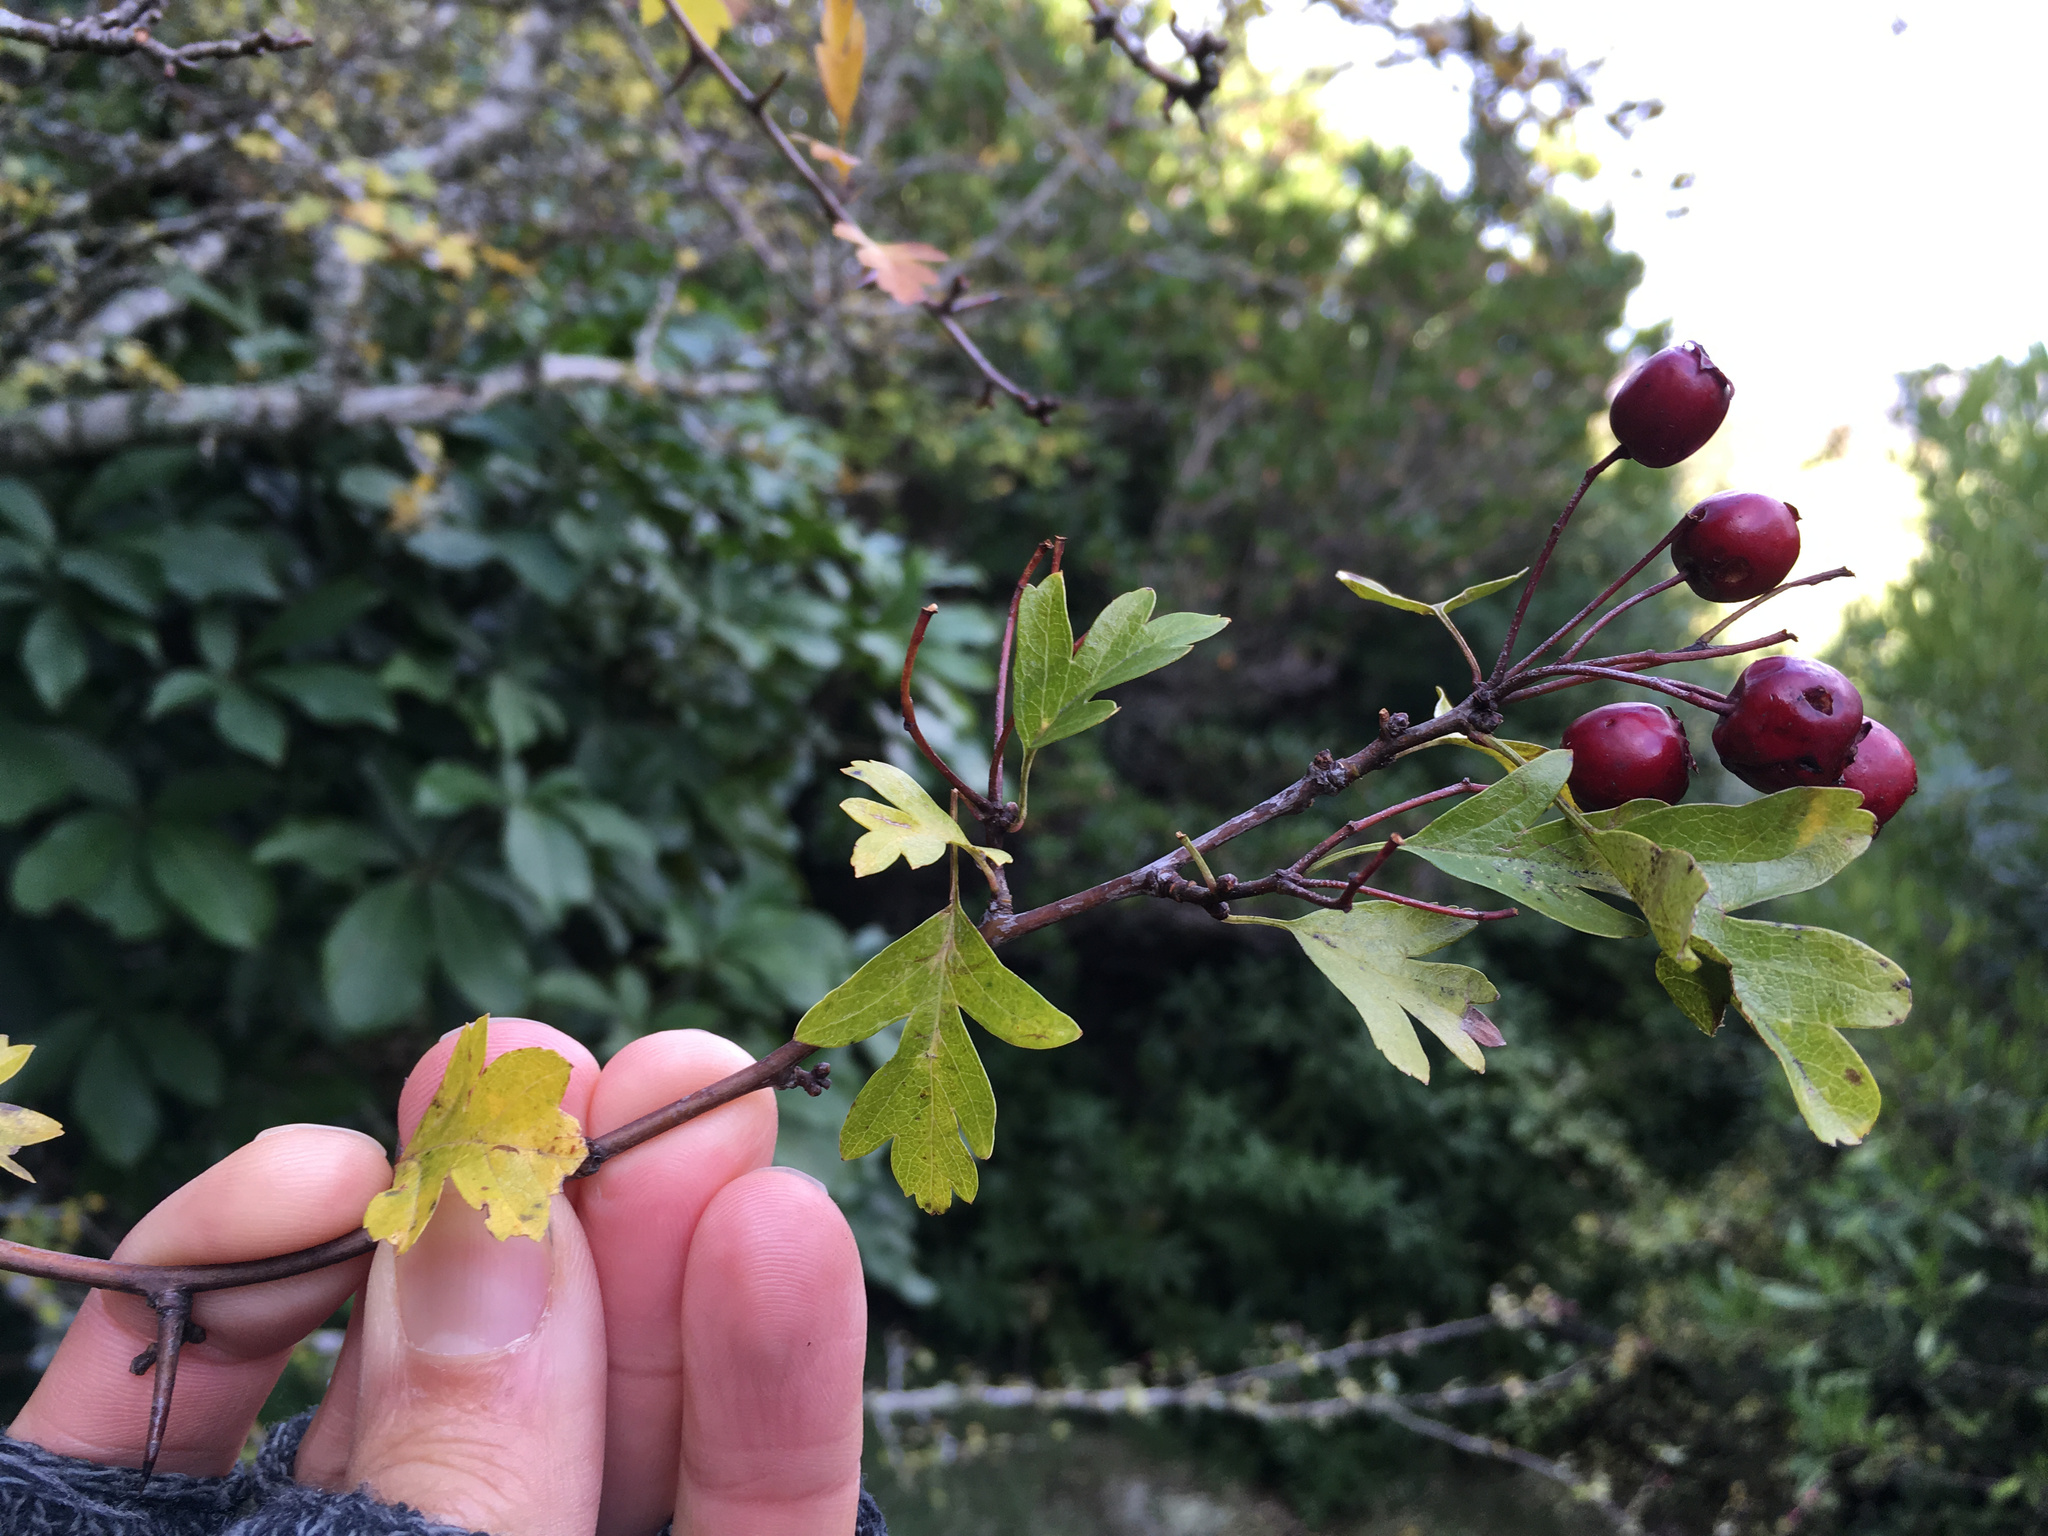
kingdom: Plantae
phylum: Tracheophyta
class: Magnoliopsida
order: Rosales
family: Rosaceae
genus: Crataegus
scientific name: Crataegus monogyna
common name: Hawthorn
